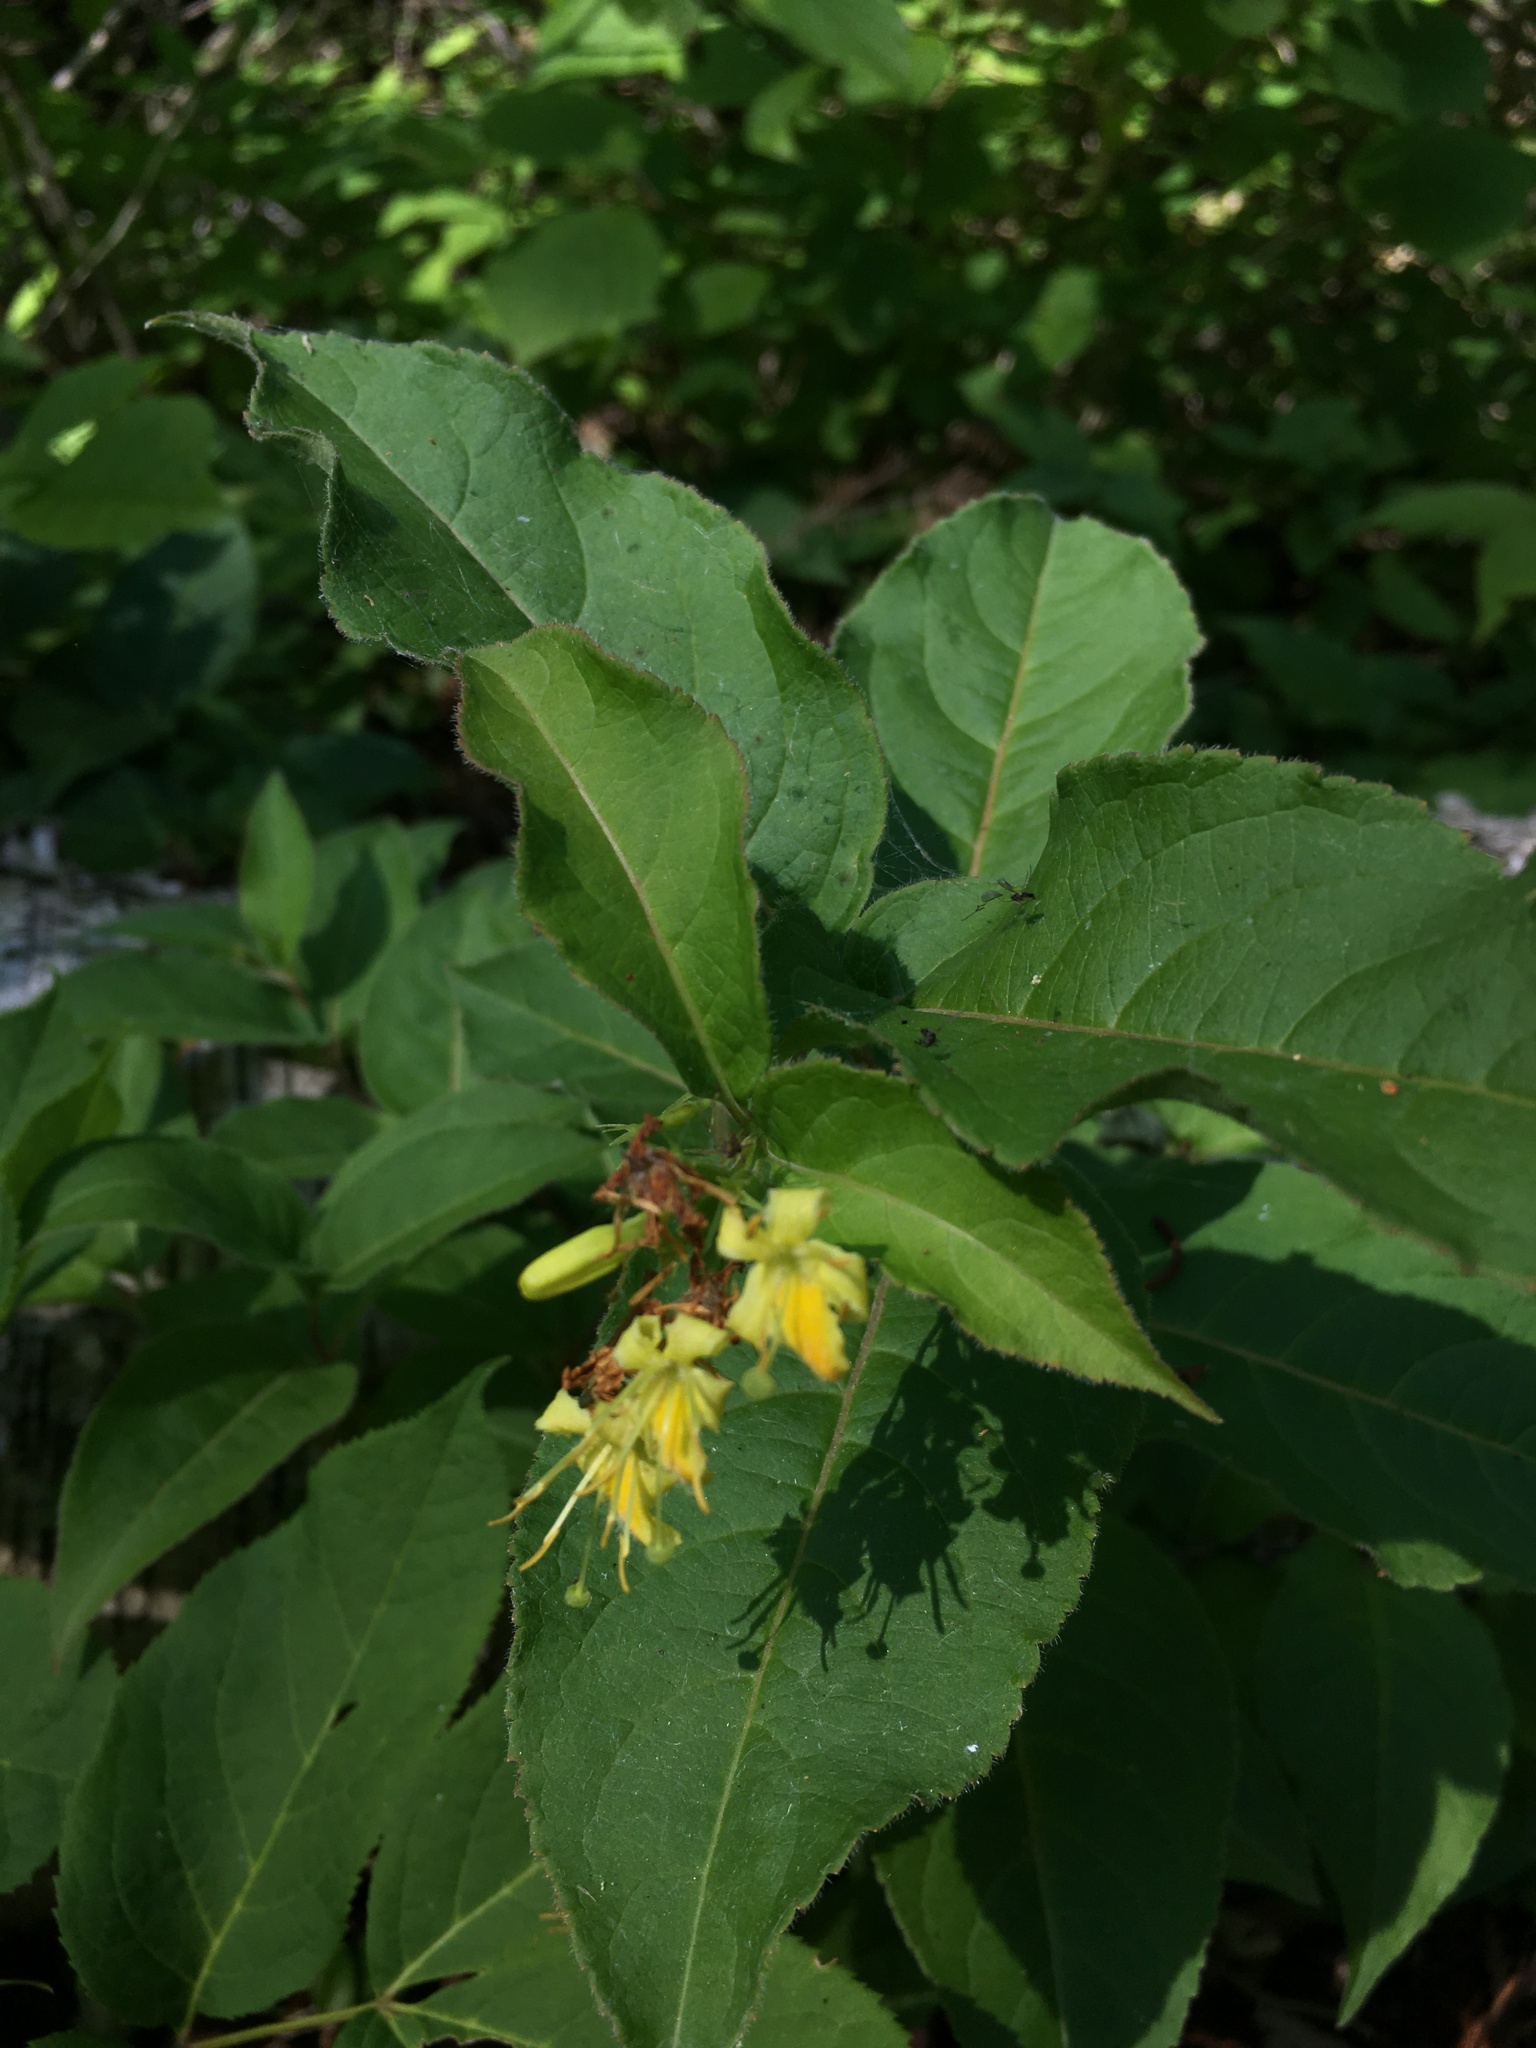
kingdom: Plantae
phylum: Tracheophyta
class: Magnoliopsida
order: Dipsacales
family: Caprifoliaceae
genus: Diervilla
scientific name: Diervilla lonicera
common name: Bush-honeysuckle
